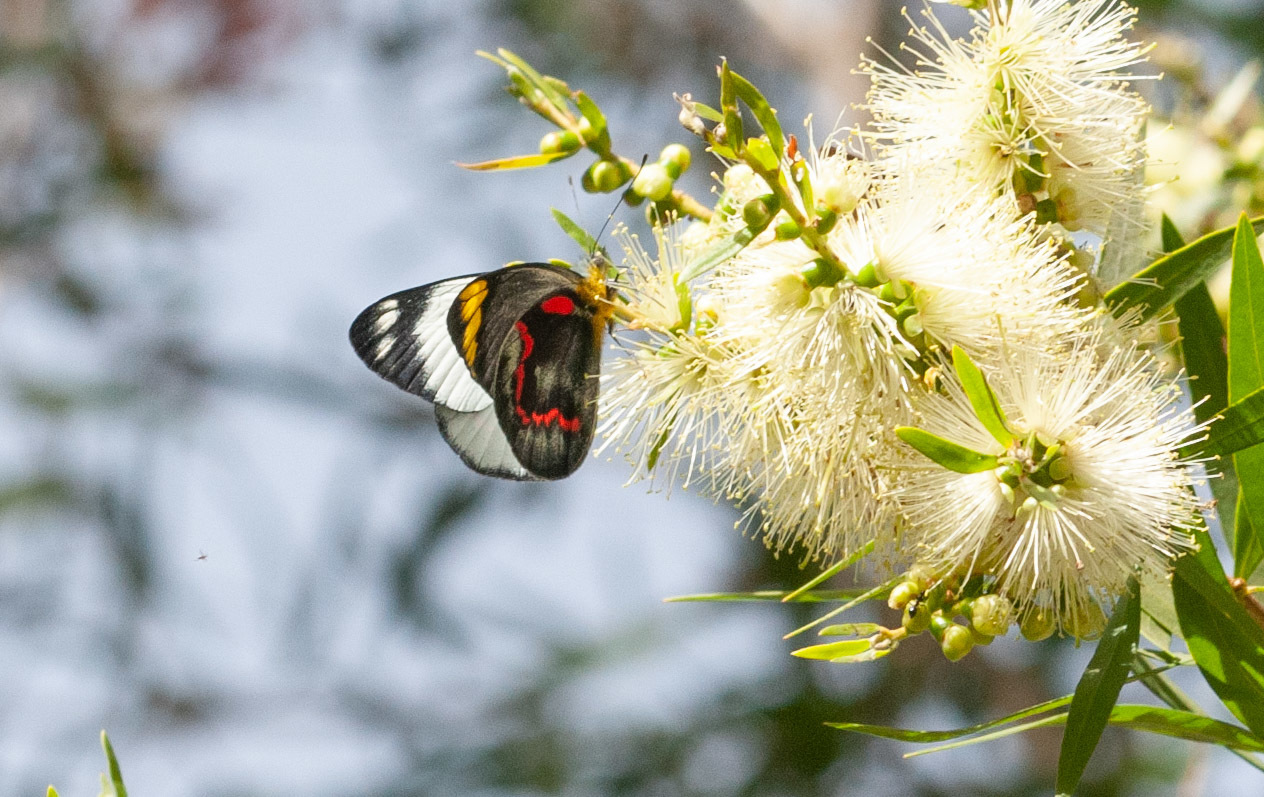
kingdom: Animalia
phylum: Arthropoda
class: Insecta
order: Lepidoptera
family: Pieridae
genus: Delias
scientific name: Delias nigrina
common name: Black jezebel
